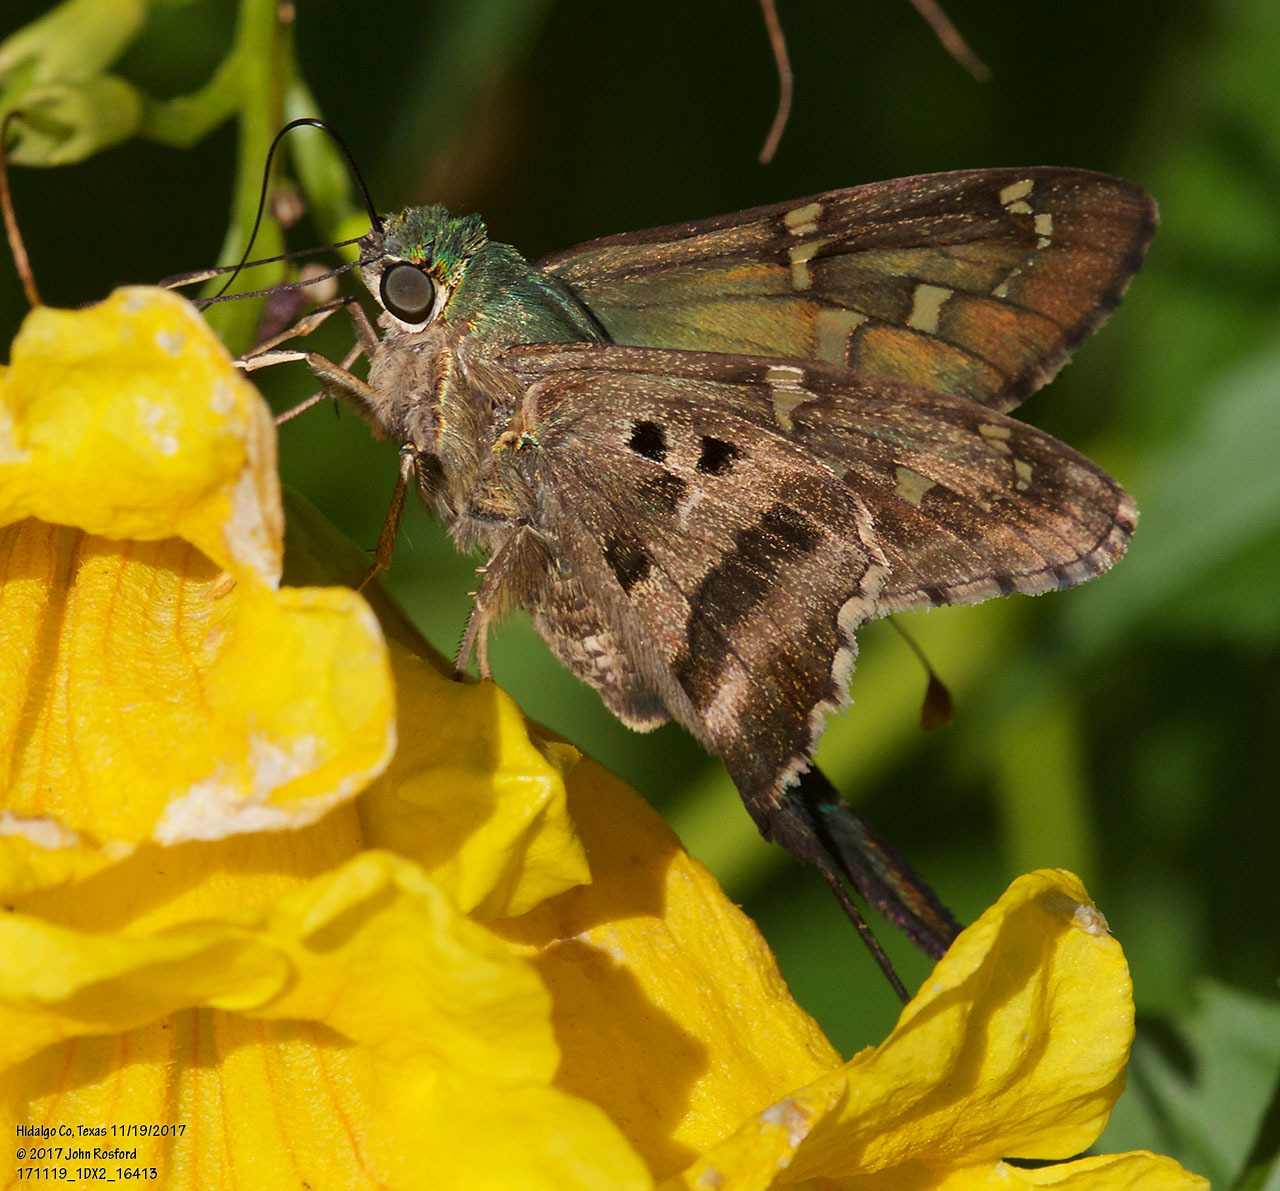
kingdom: Animalia
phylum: Arthropoda
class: Insecta
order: Lepidoptera
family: Hesperiidae
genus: Urbanus
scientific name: Urbanus proteus
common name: Long-tailed skipper
